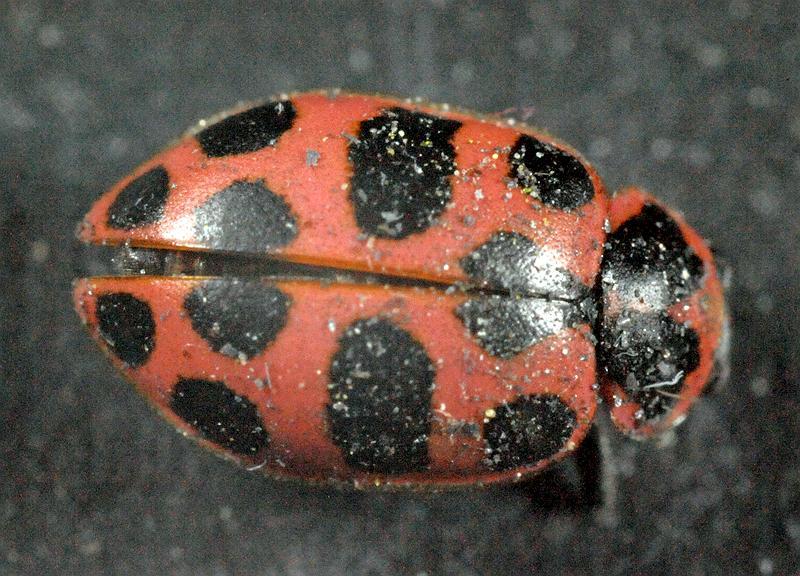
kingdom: Animalia
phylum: Arthropoda
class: Insecta
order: Coleoptera
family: Coccinellidae
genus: Coleomegilla
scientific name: Coleomegilla maculata
